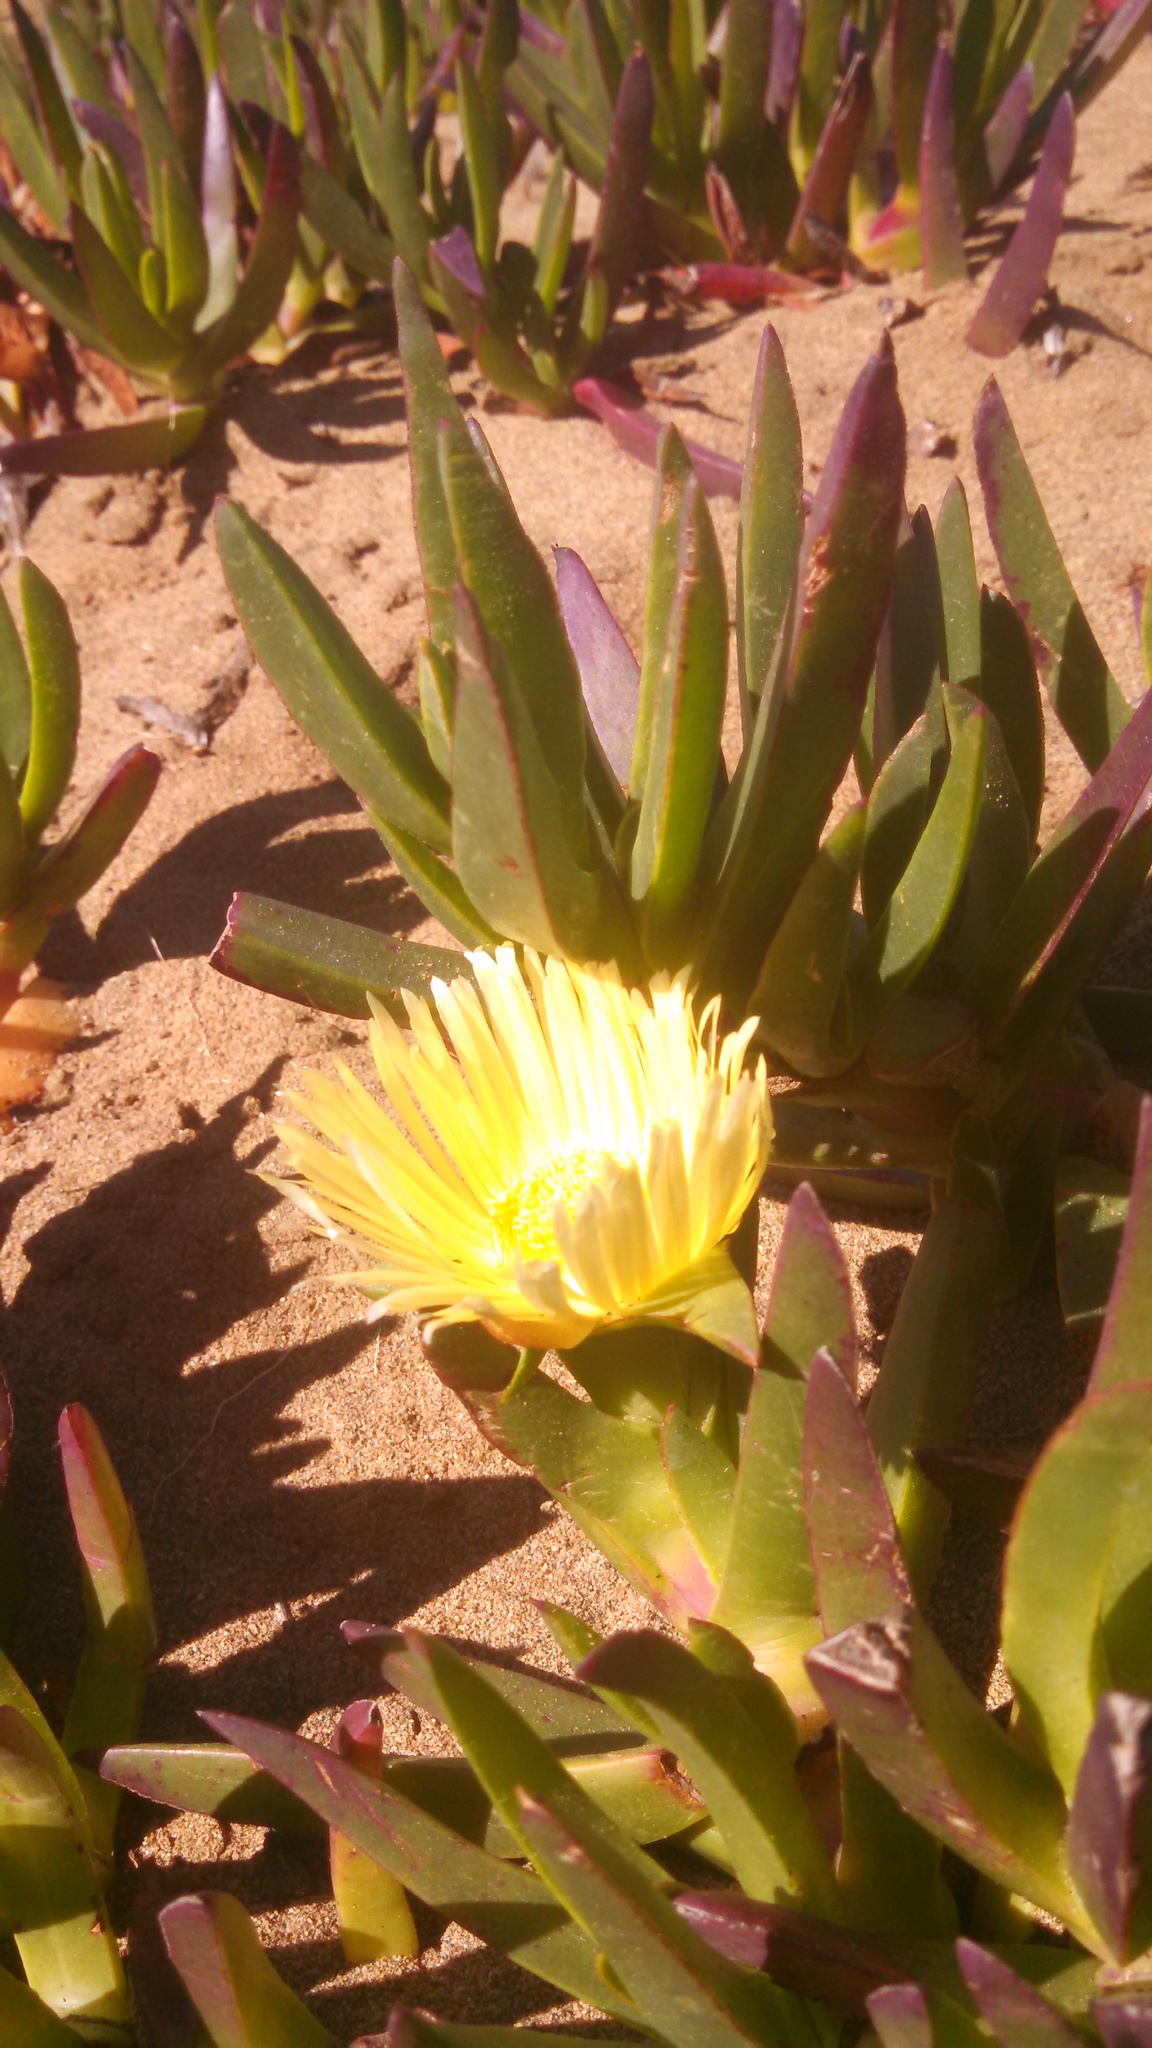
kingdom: Plantae
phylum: Tracheophyta
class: Magnoliopsida
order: Caryophyllales
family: Aizoaceae
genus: Carpobrotus
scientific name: Carpobrotus edulis
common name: Hottentot-fig
